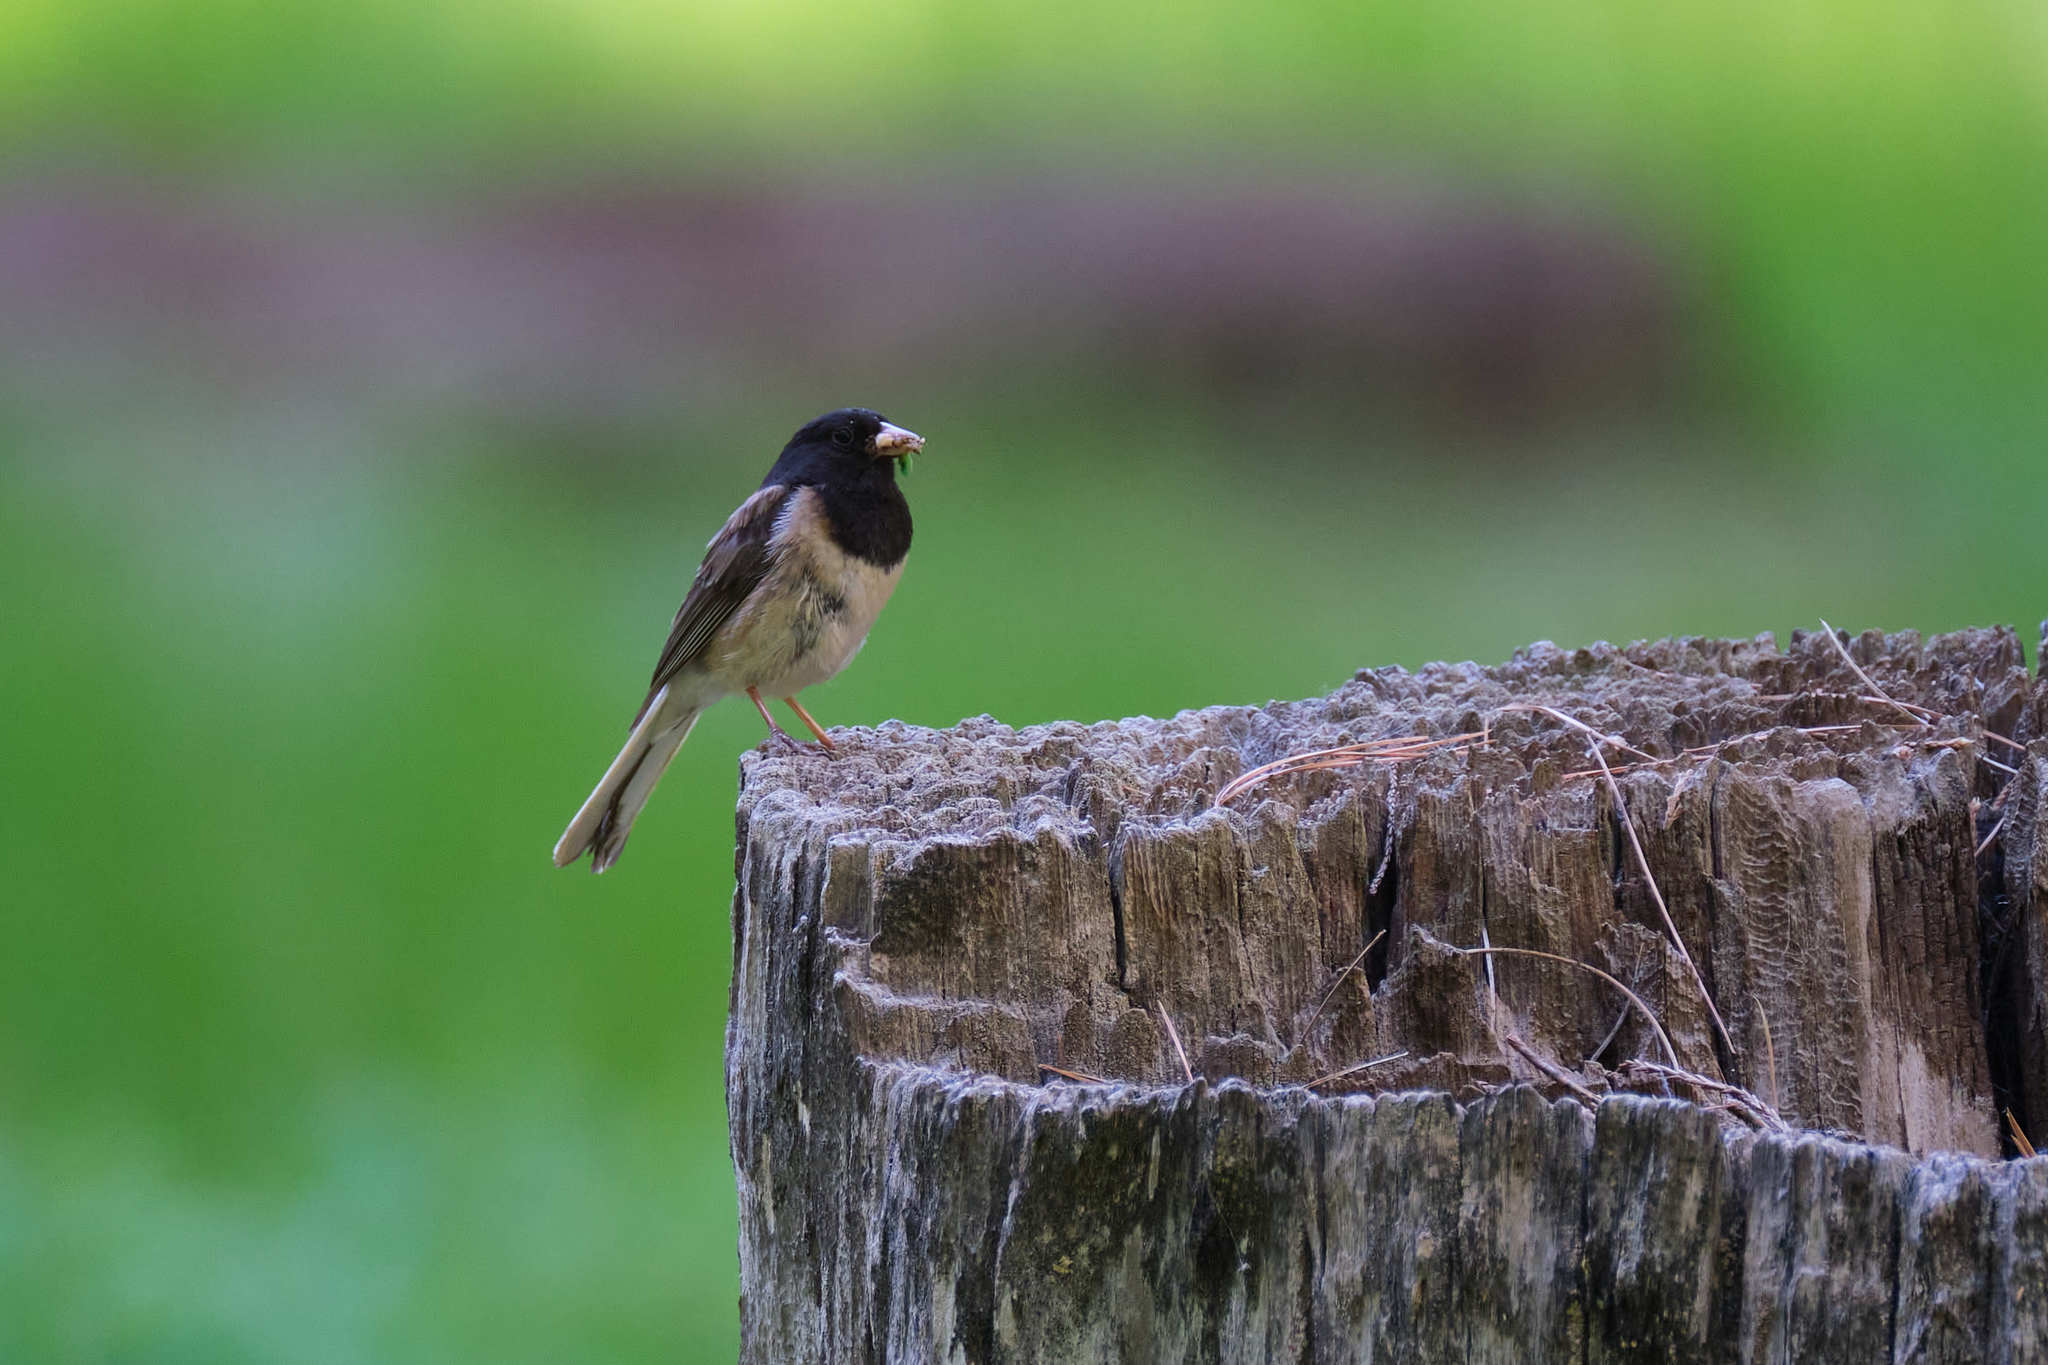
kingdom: Animalia
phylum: Chordata
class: Aves
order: Passeriformes
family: Passerellidae
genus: Junco
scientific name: Junco hyemalis
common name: Dark-eyed junco
